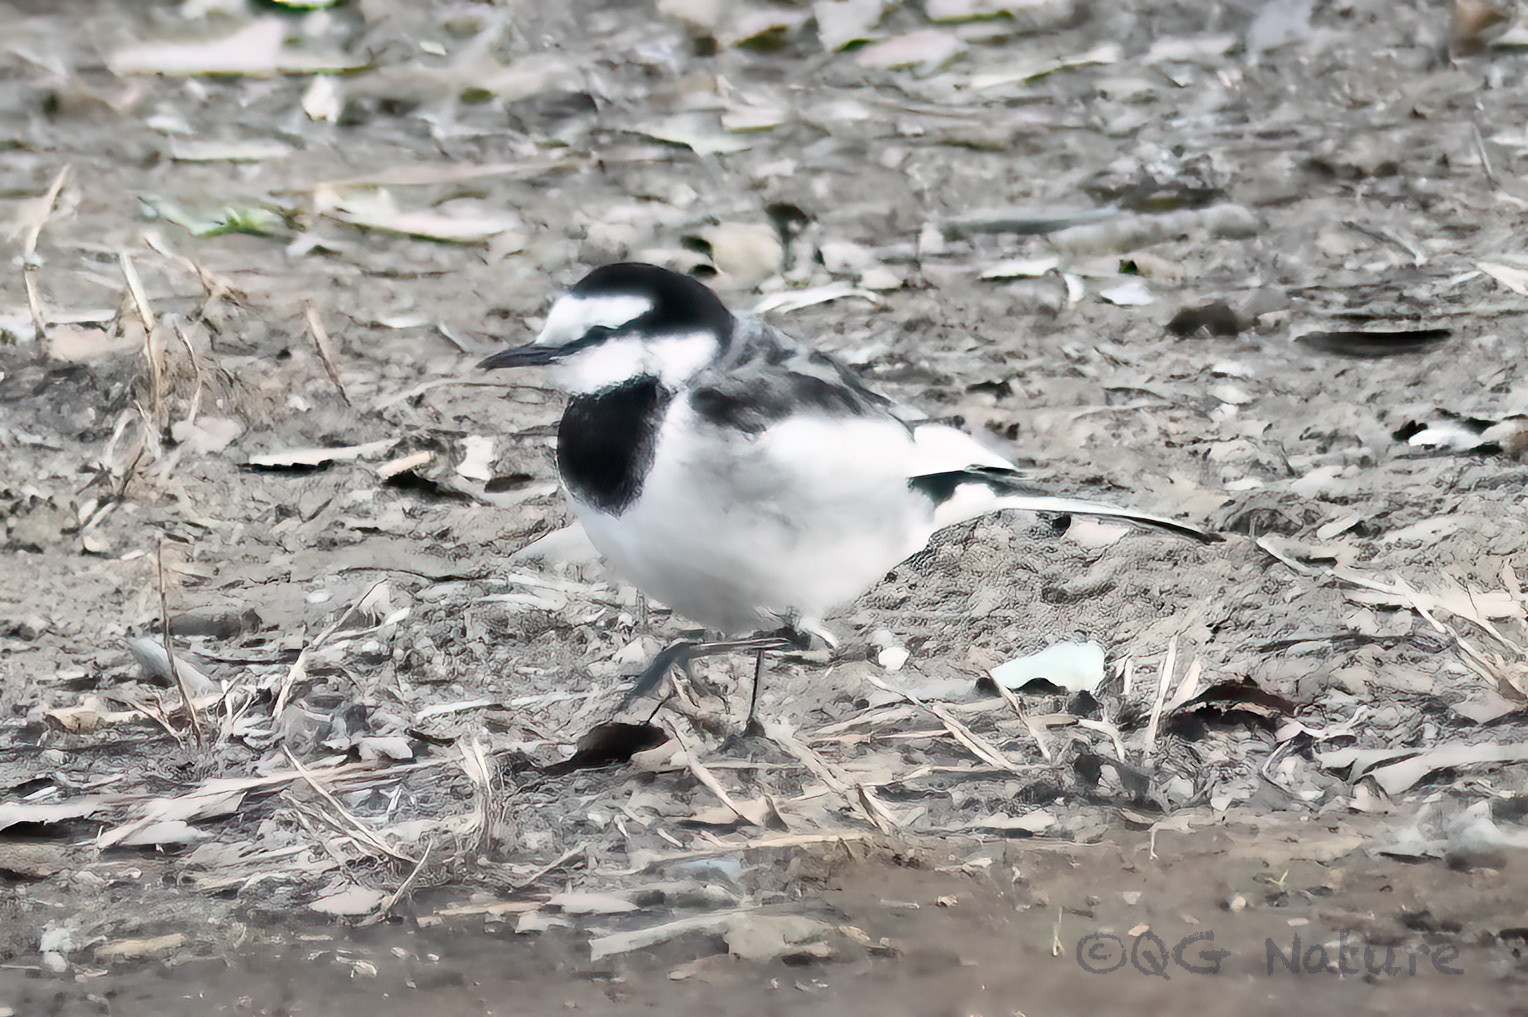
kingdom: Animalia
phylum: Chordata
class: Aves
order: Passeriformes
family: Motacillidae
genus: Motacilla
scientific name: Motacilla alba
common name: White wagtail
